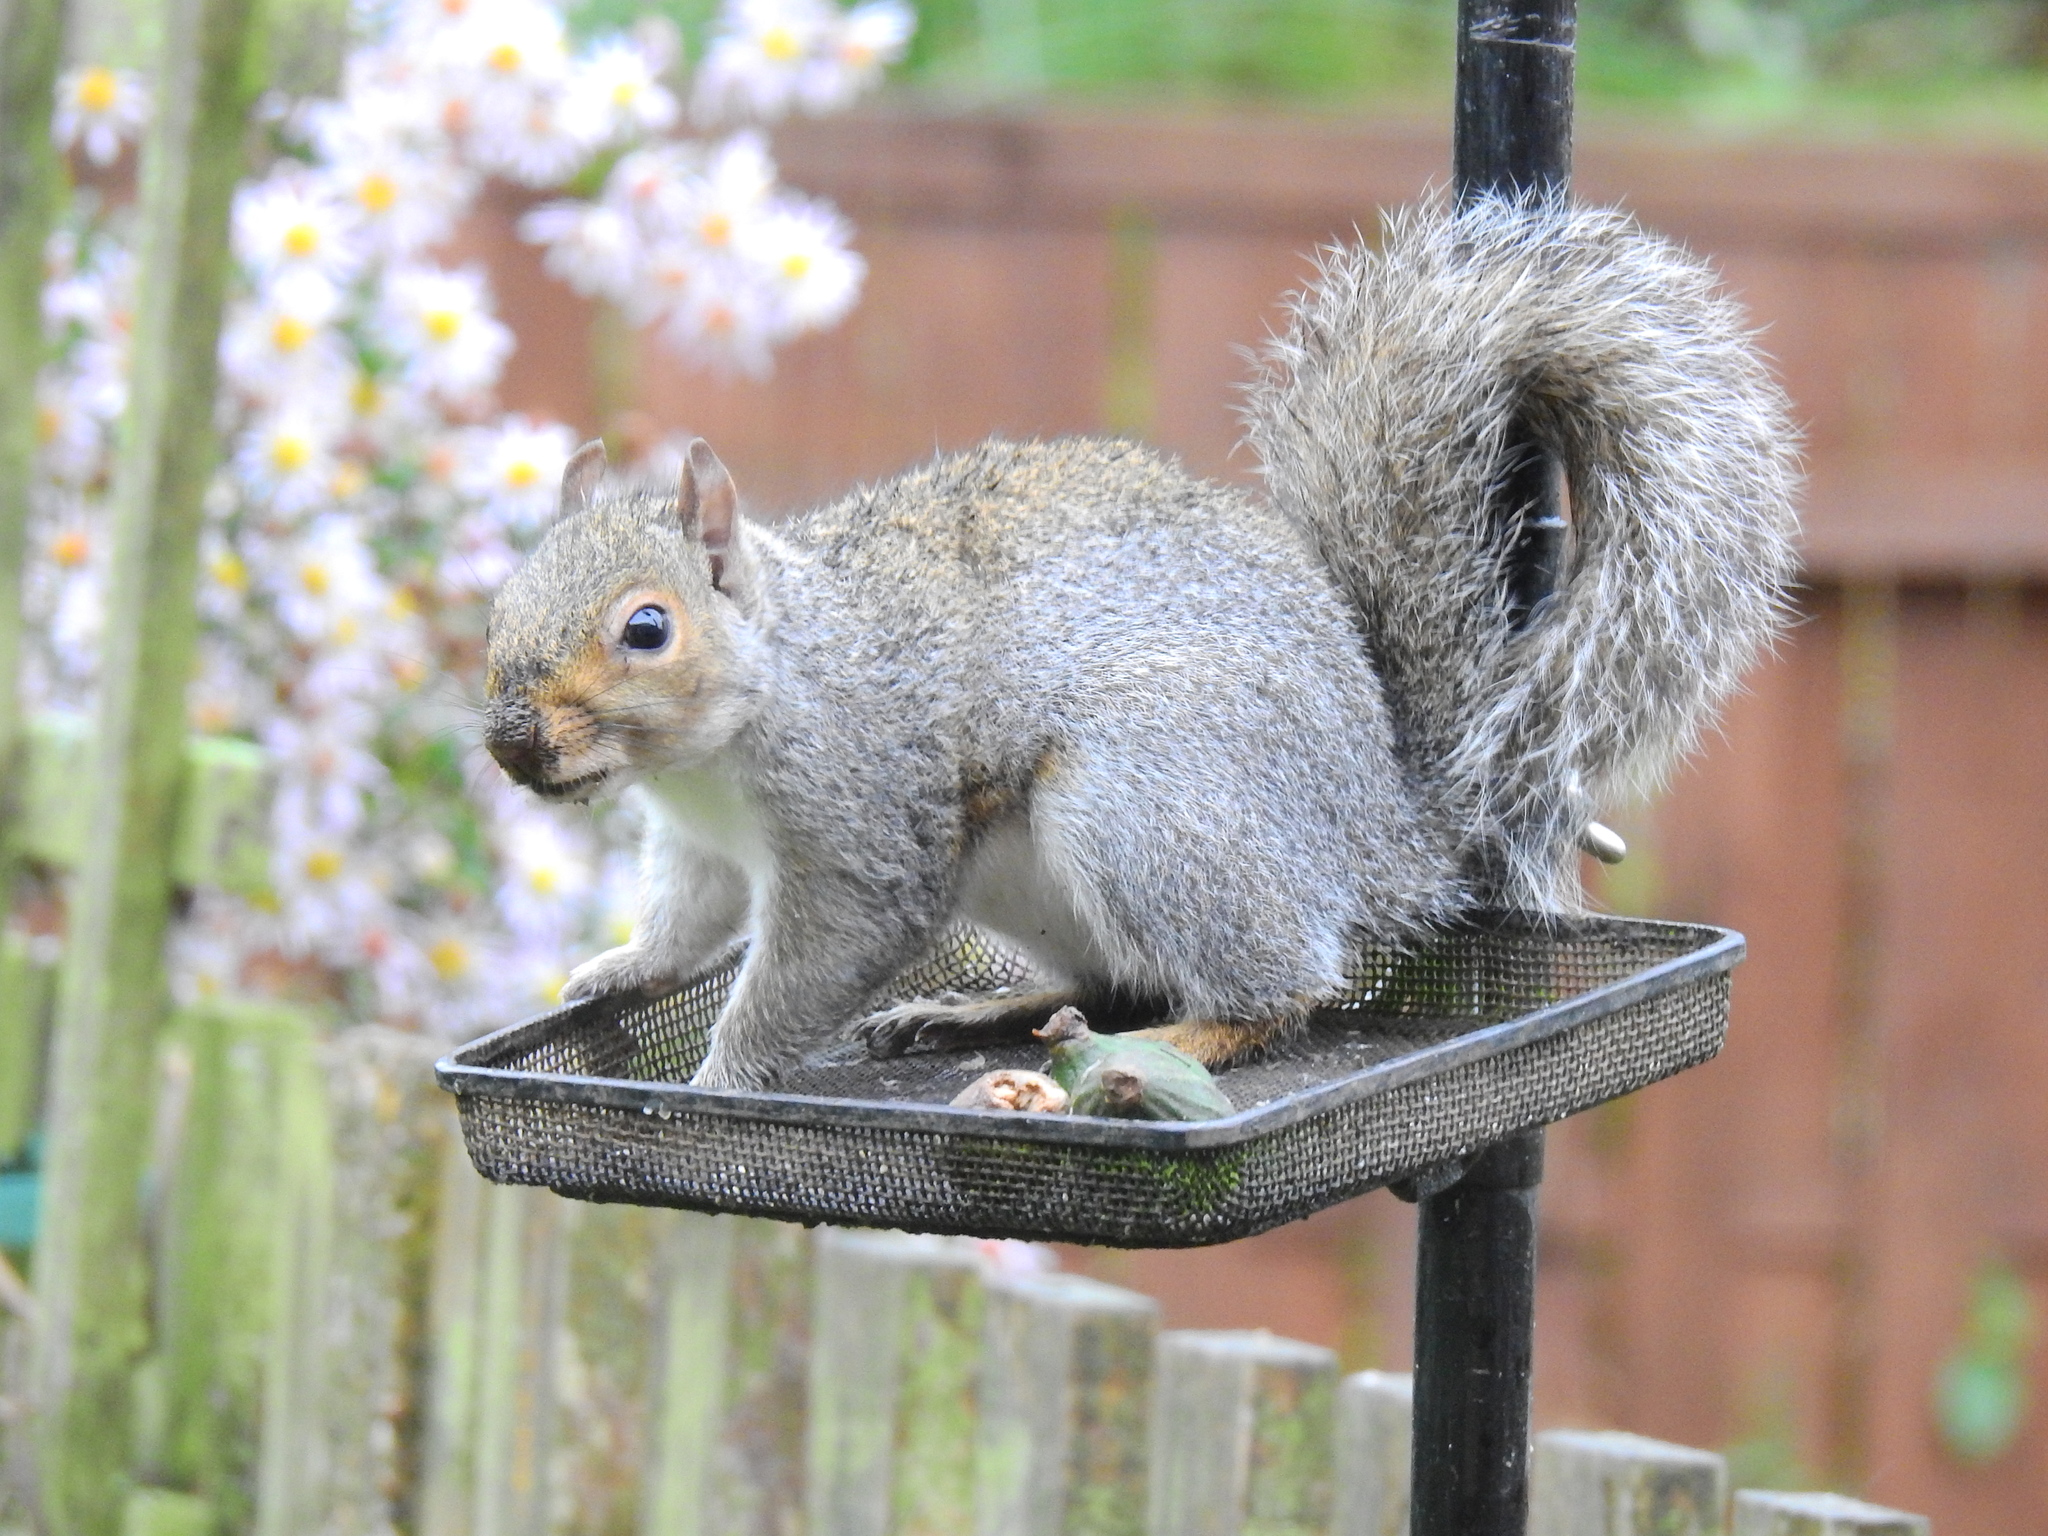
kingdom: Animalia
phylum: Chordata
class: Mammalia
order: Rodentia
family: Sciuridae
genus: Sciurus
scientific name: Sciurus carolinensis
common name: Eastern gray squirrel
